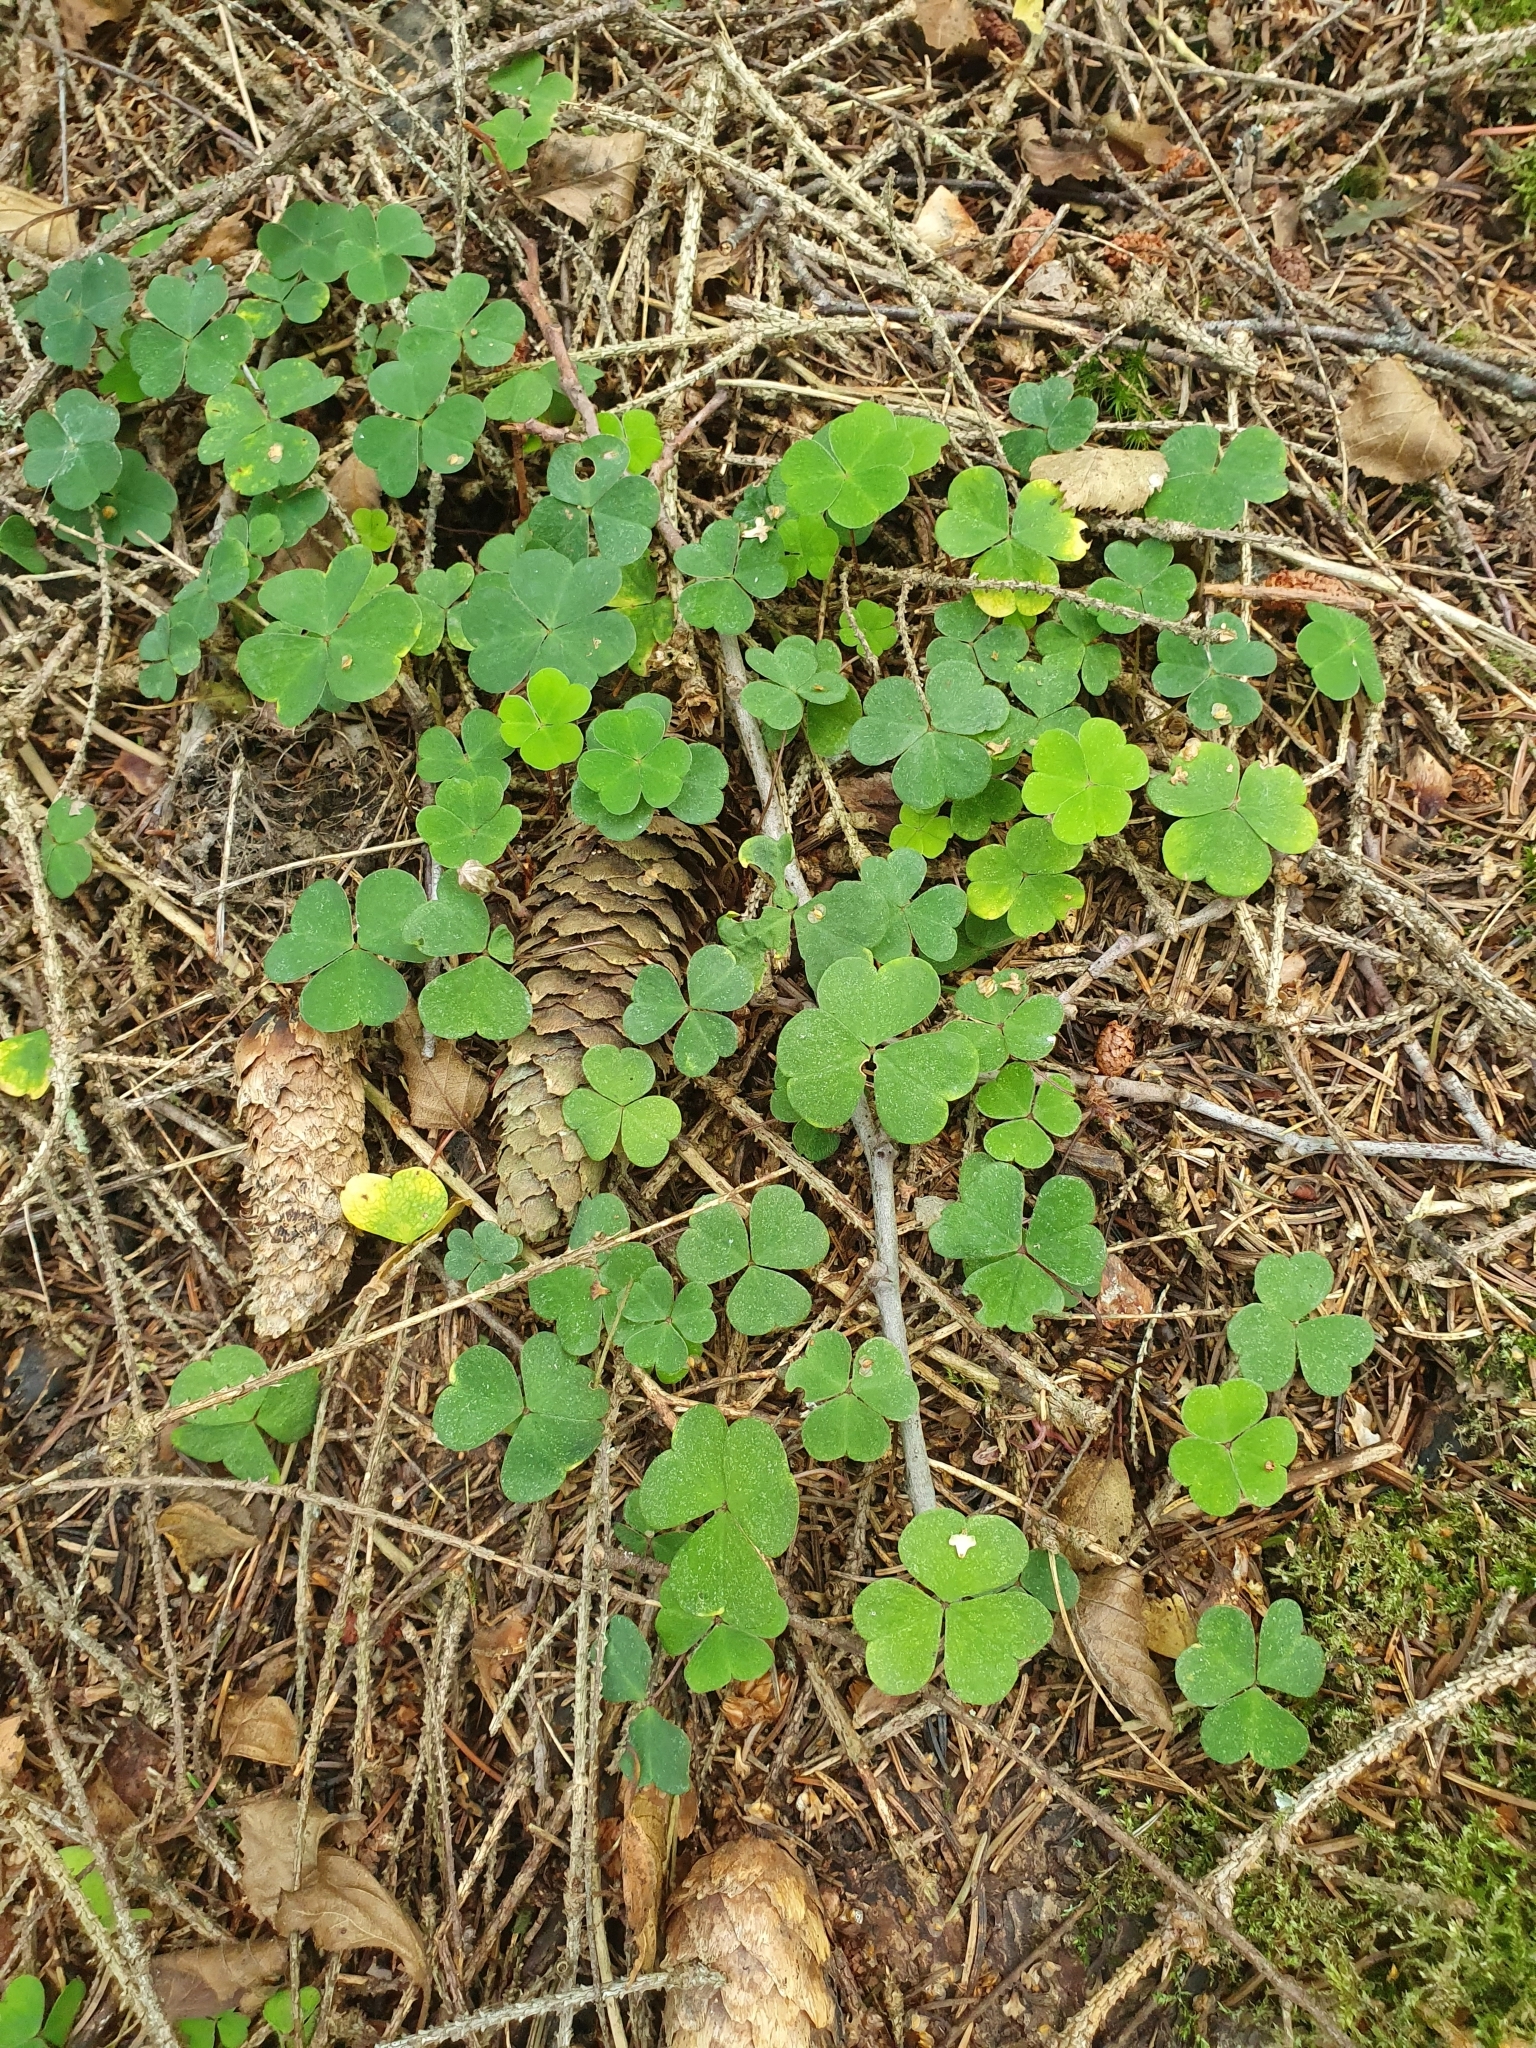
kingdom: Plantae
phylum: Tracheophyta
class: Magnoliopsida
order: Oxalidales
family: Oxalidaceae
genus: Oxalis
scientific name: Oxalis acetosella
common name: Wood-sorrel
